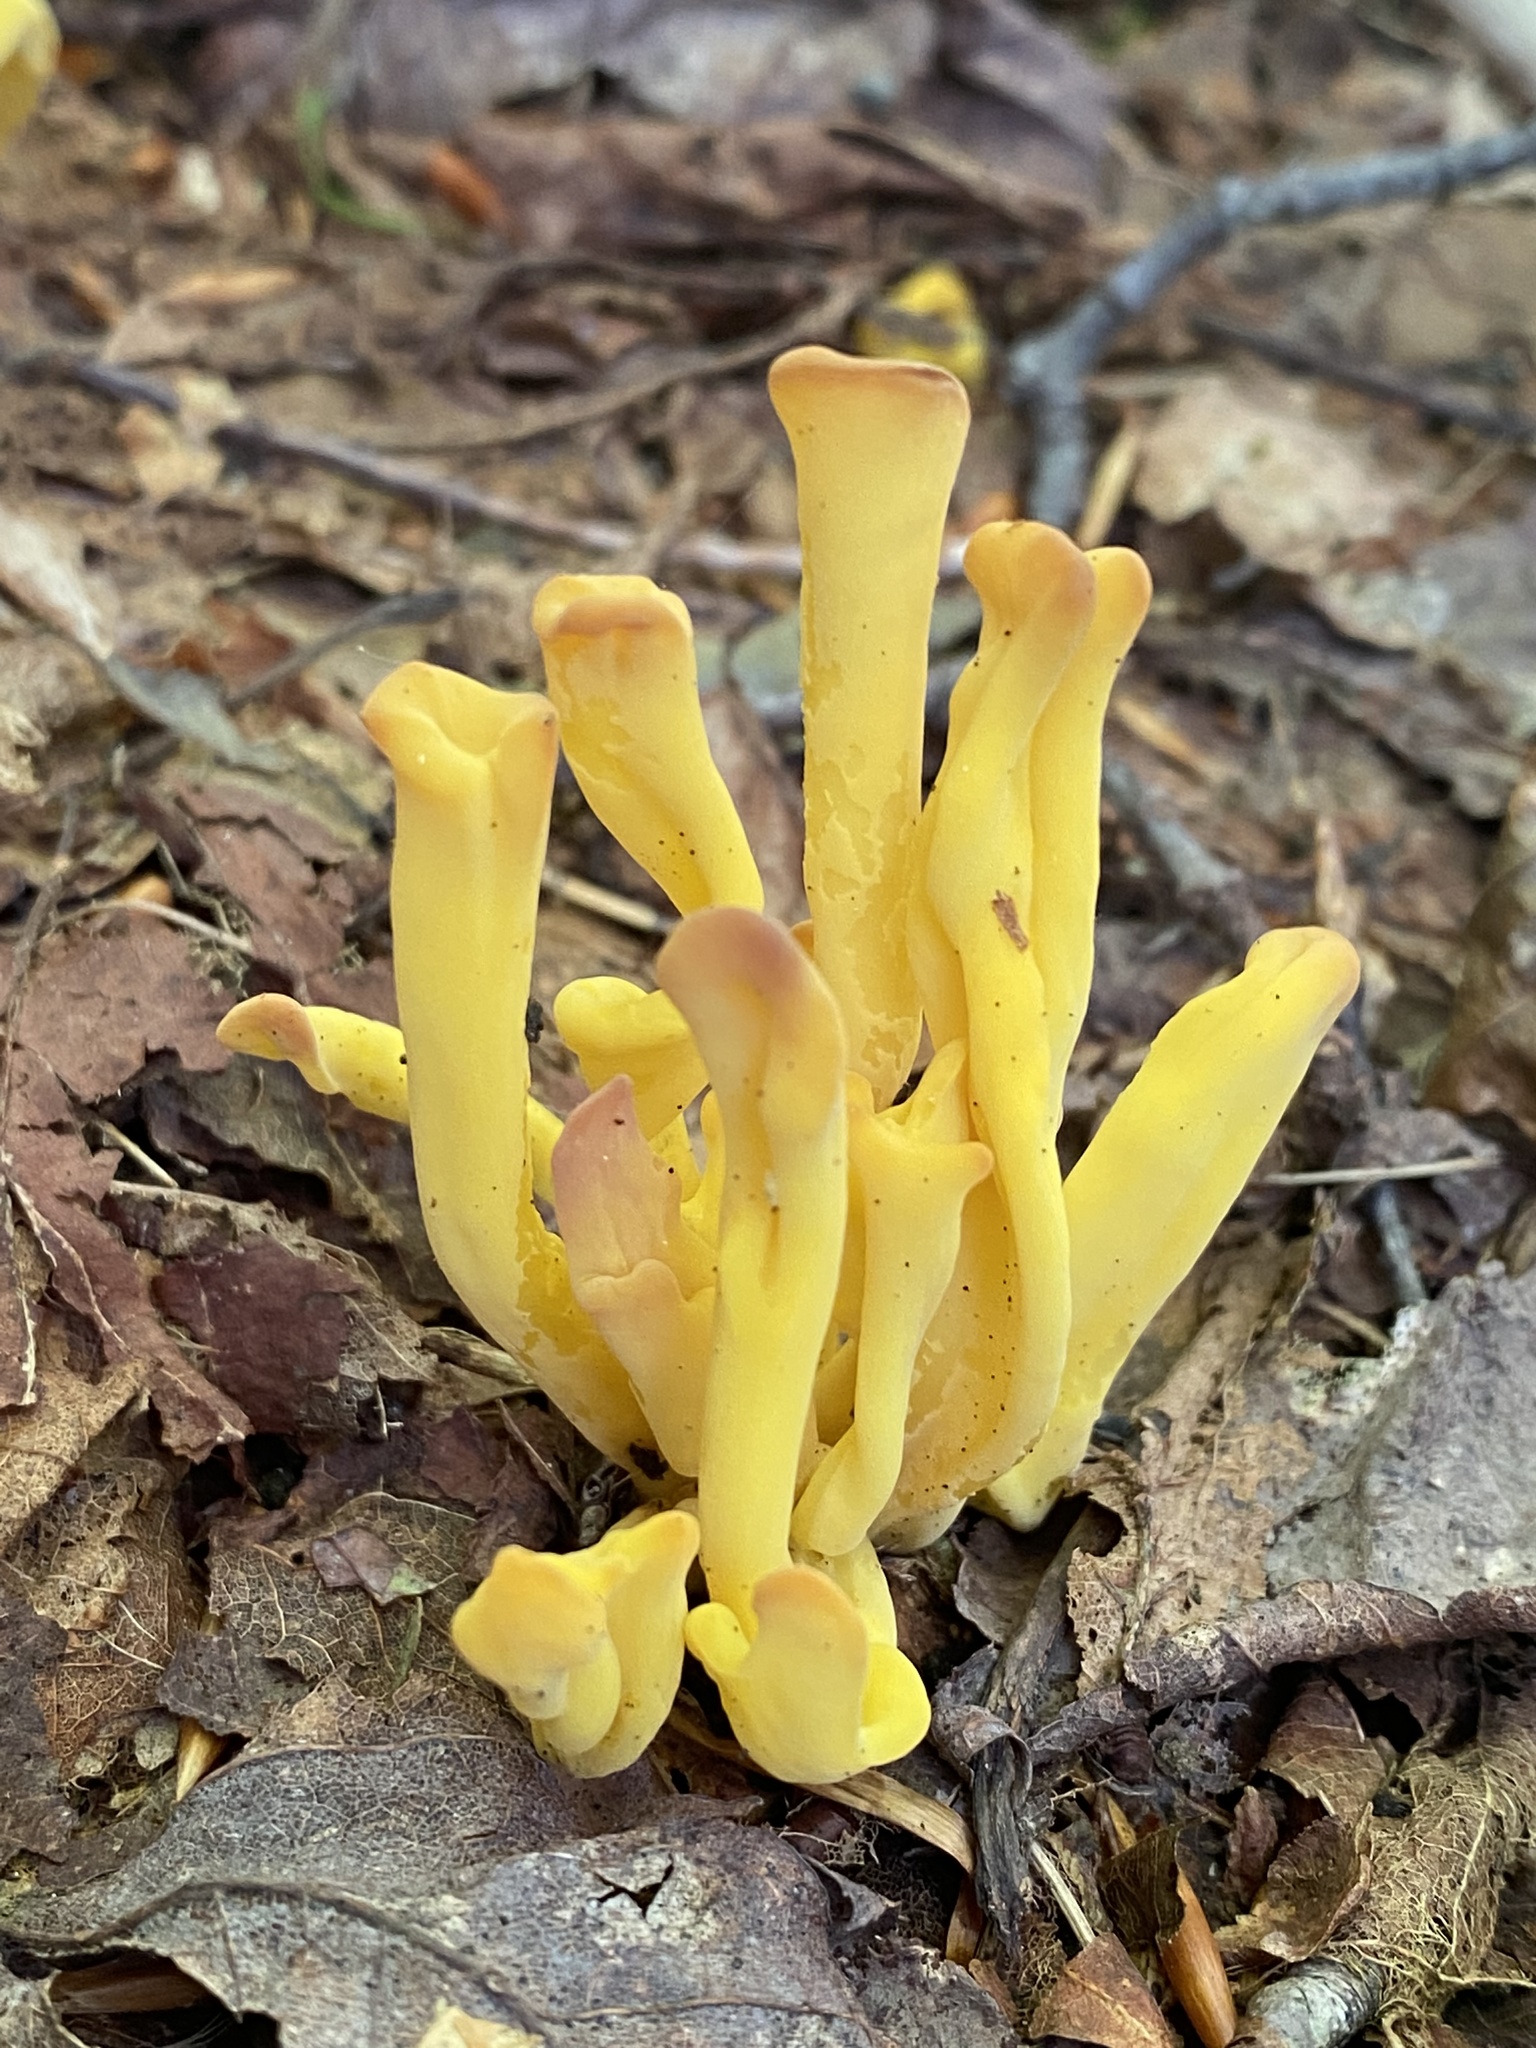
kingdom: Fungi
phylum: Basidiomycota
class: Agaricomycetes
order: Agaricales
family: Clavariaceae
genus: Clavulinopsis
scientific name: Clavulinopsis fusiformis
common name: Golden spindles
